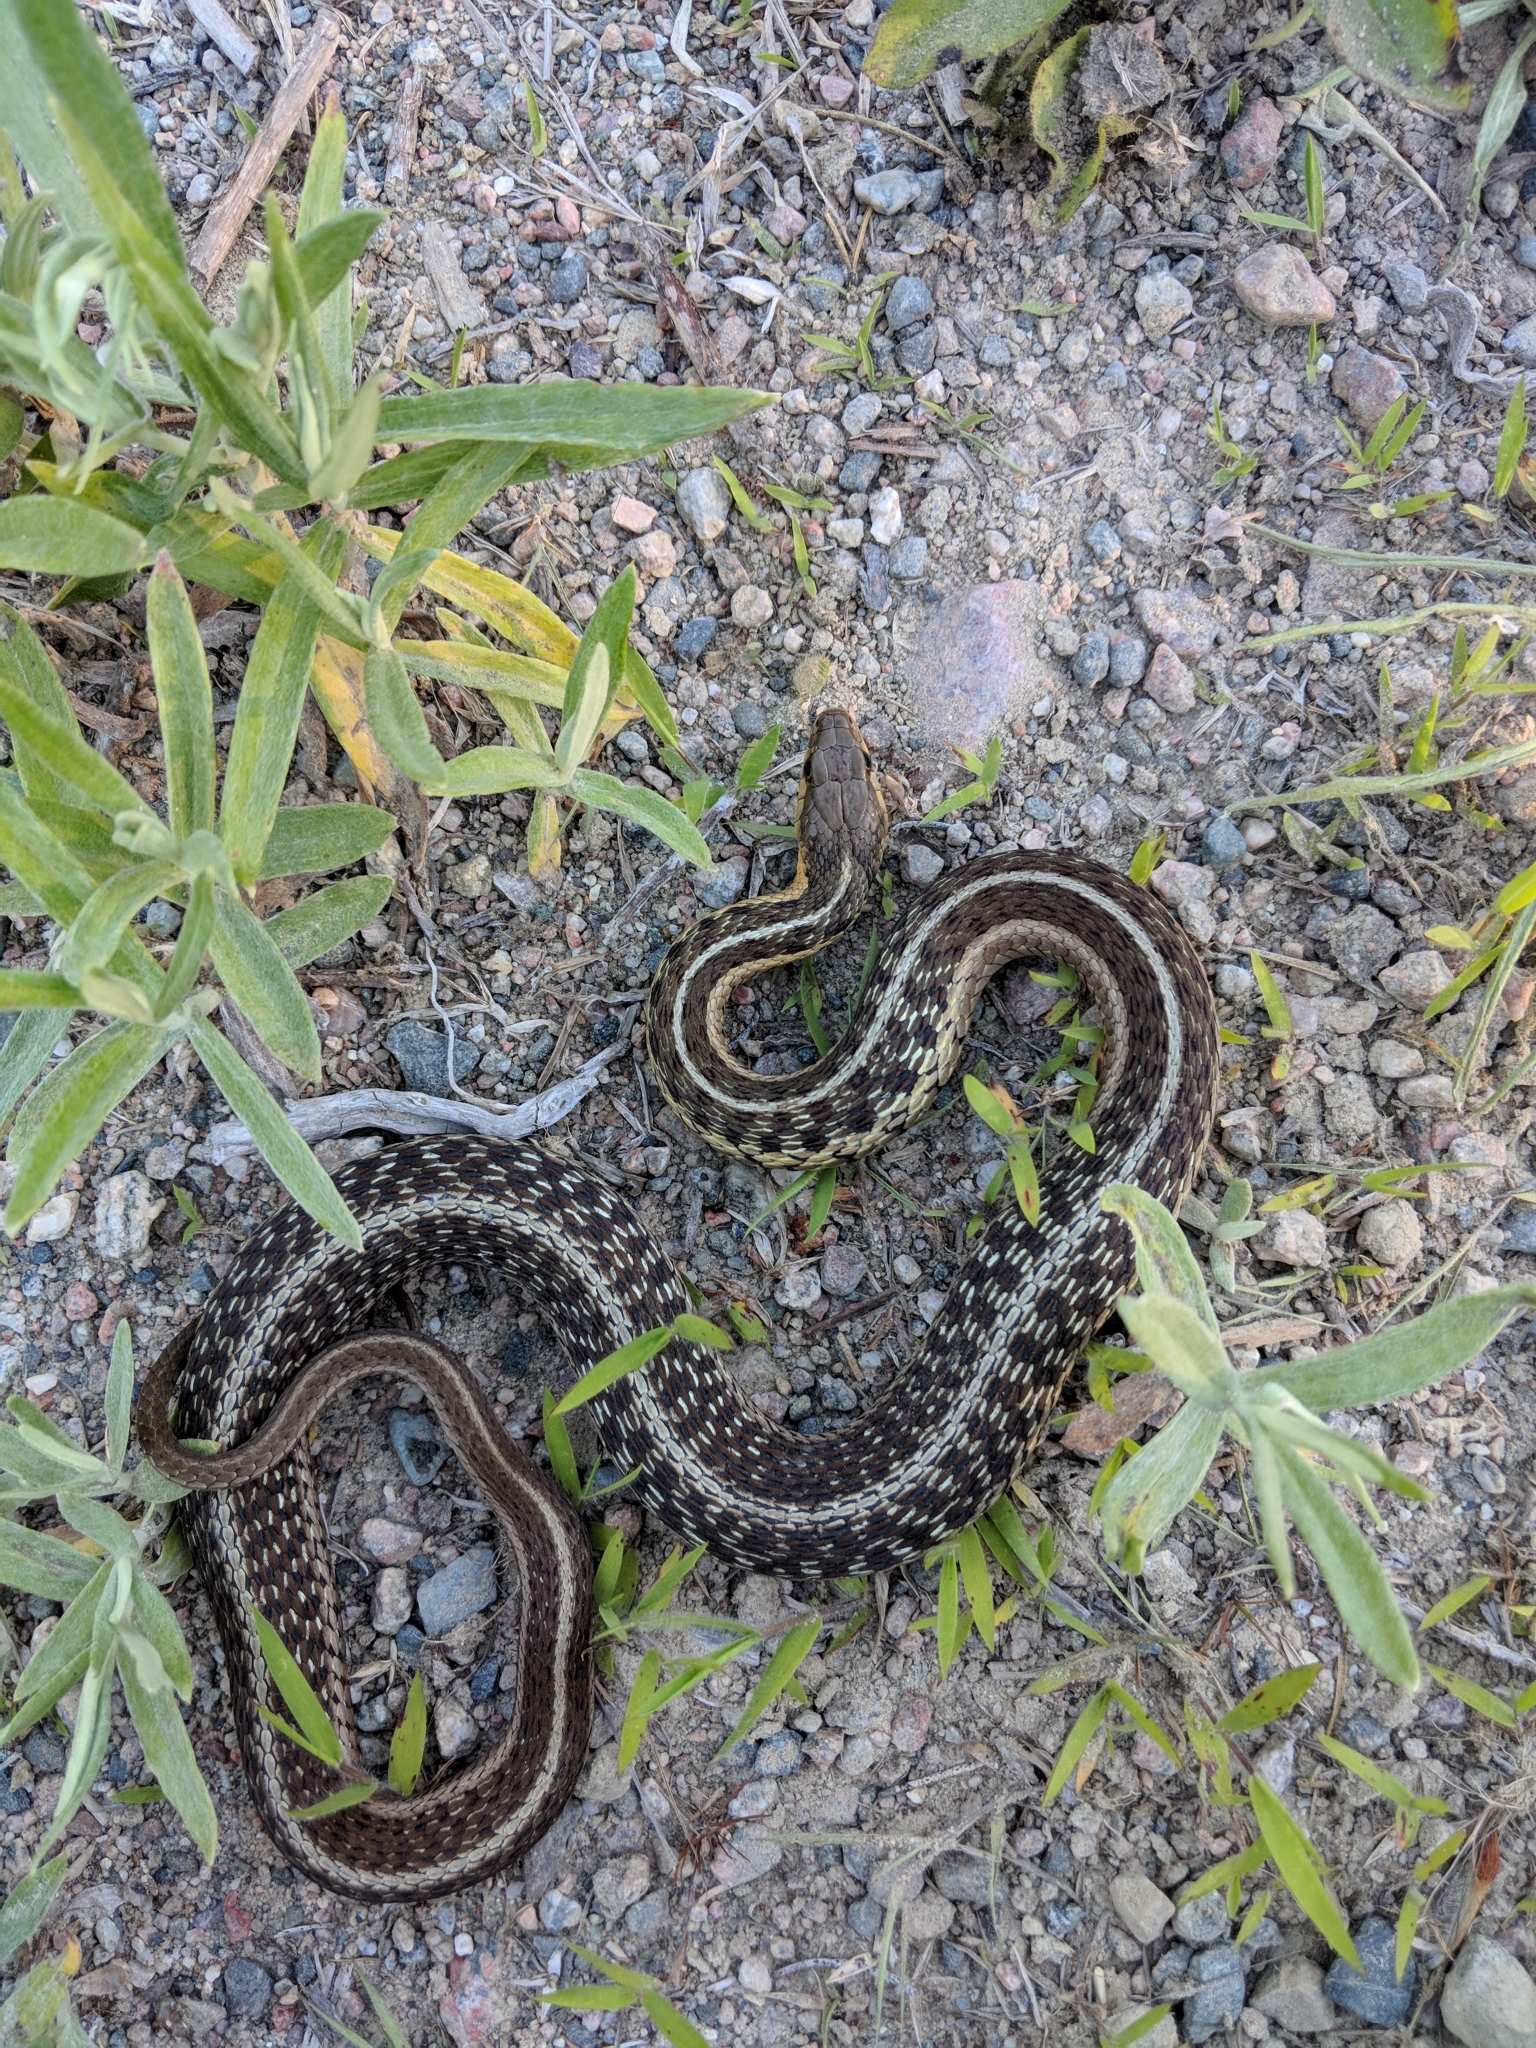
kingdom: Animalia
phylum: Chordata
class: Squamata
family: Colubridae
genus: Thamnophis
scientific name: Thamnophis sirtalis
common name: Common garter snake
